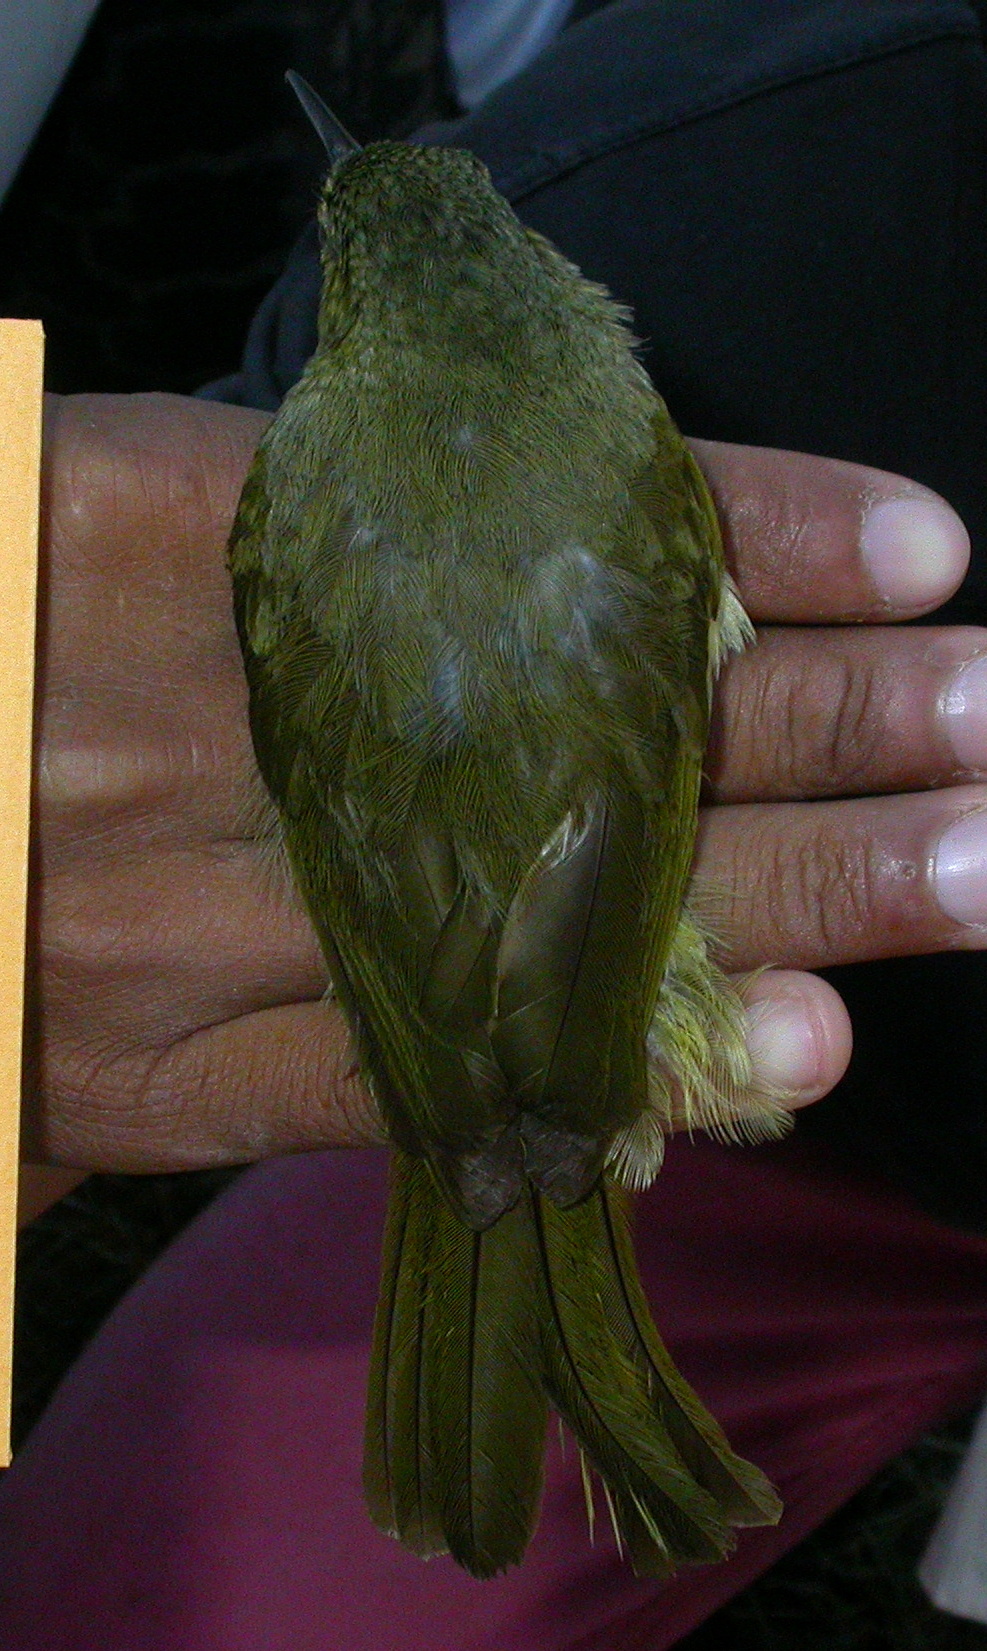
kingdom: Animalia
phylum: Chordata
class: Aves
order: Passeriformes
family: Bernieridae
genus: Bernieria
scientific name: Bernieria madagascariensis
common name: Long-billed bernieria
